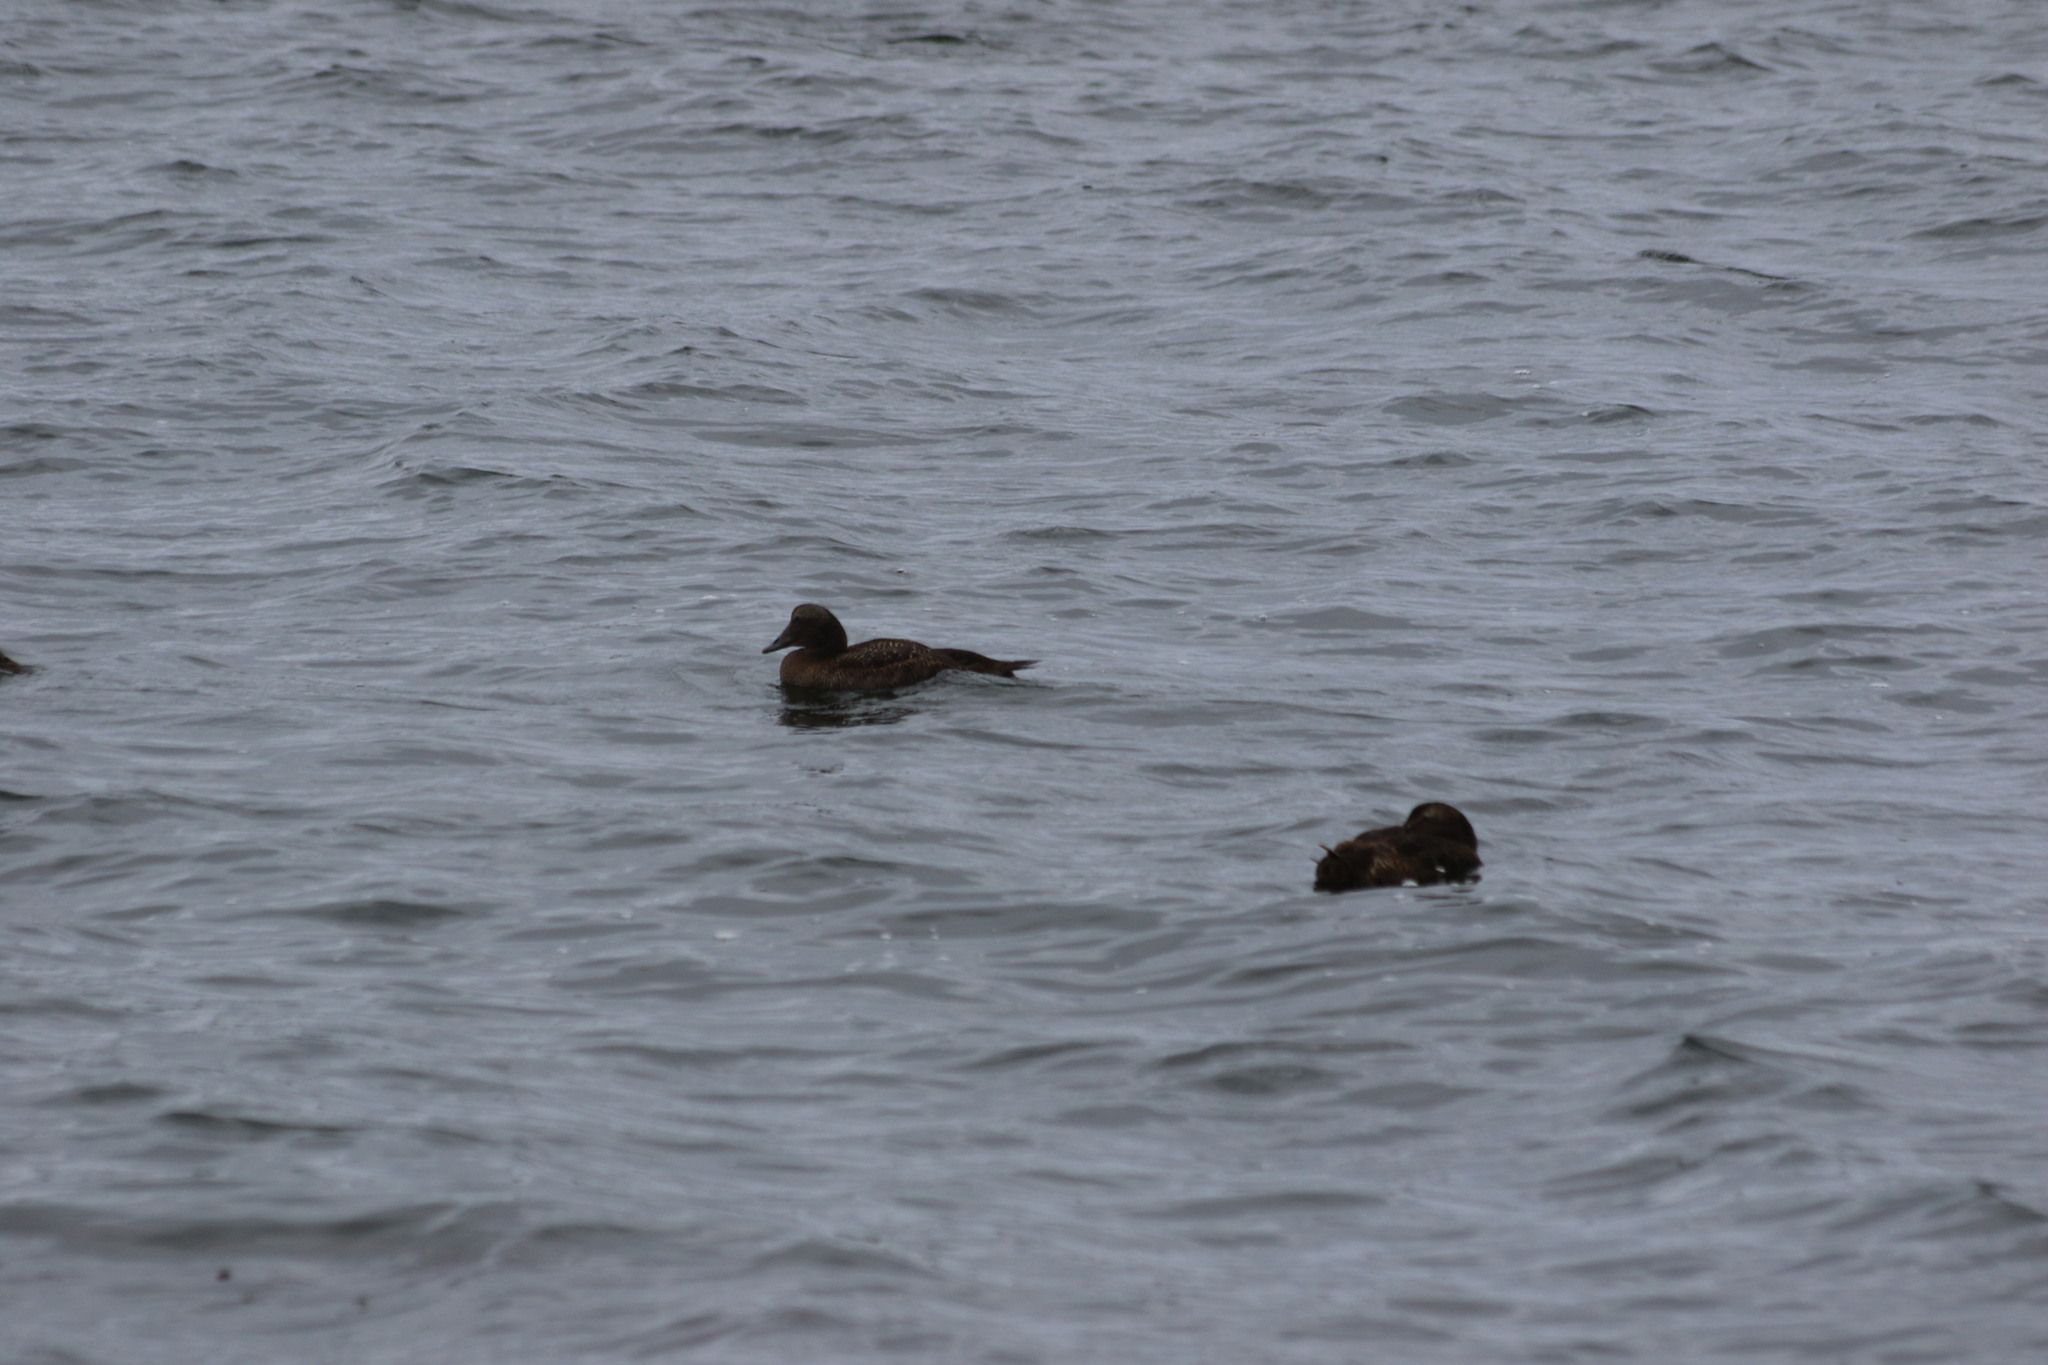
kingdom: Animalia
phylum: Chordata
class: Aves
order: Anseriformes
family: Anatidae
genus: Somateria
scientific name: Somateria mollissima
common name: Common eider
